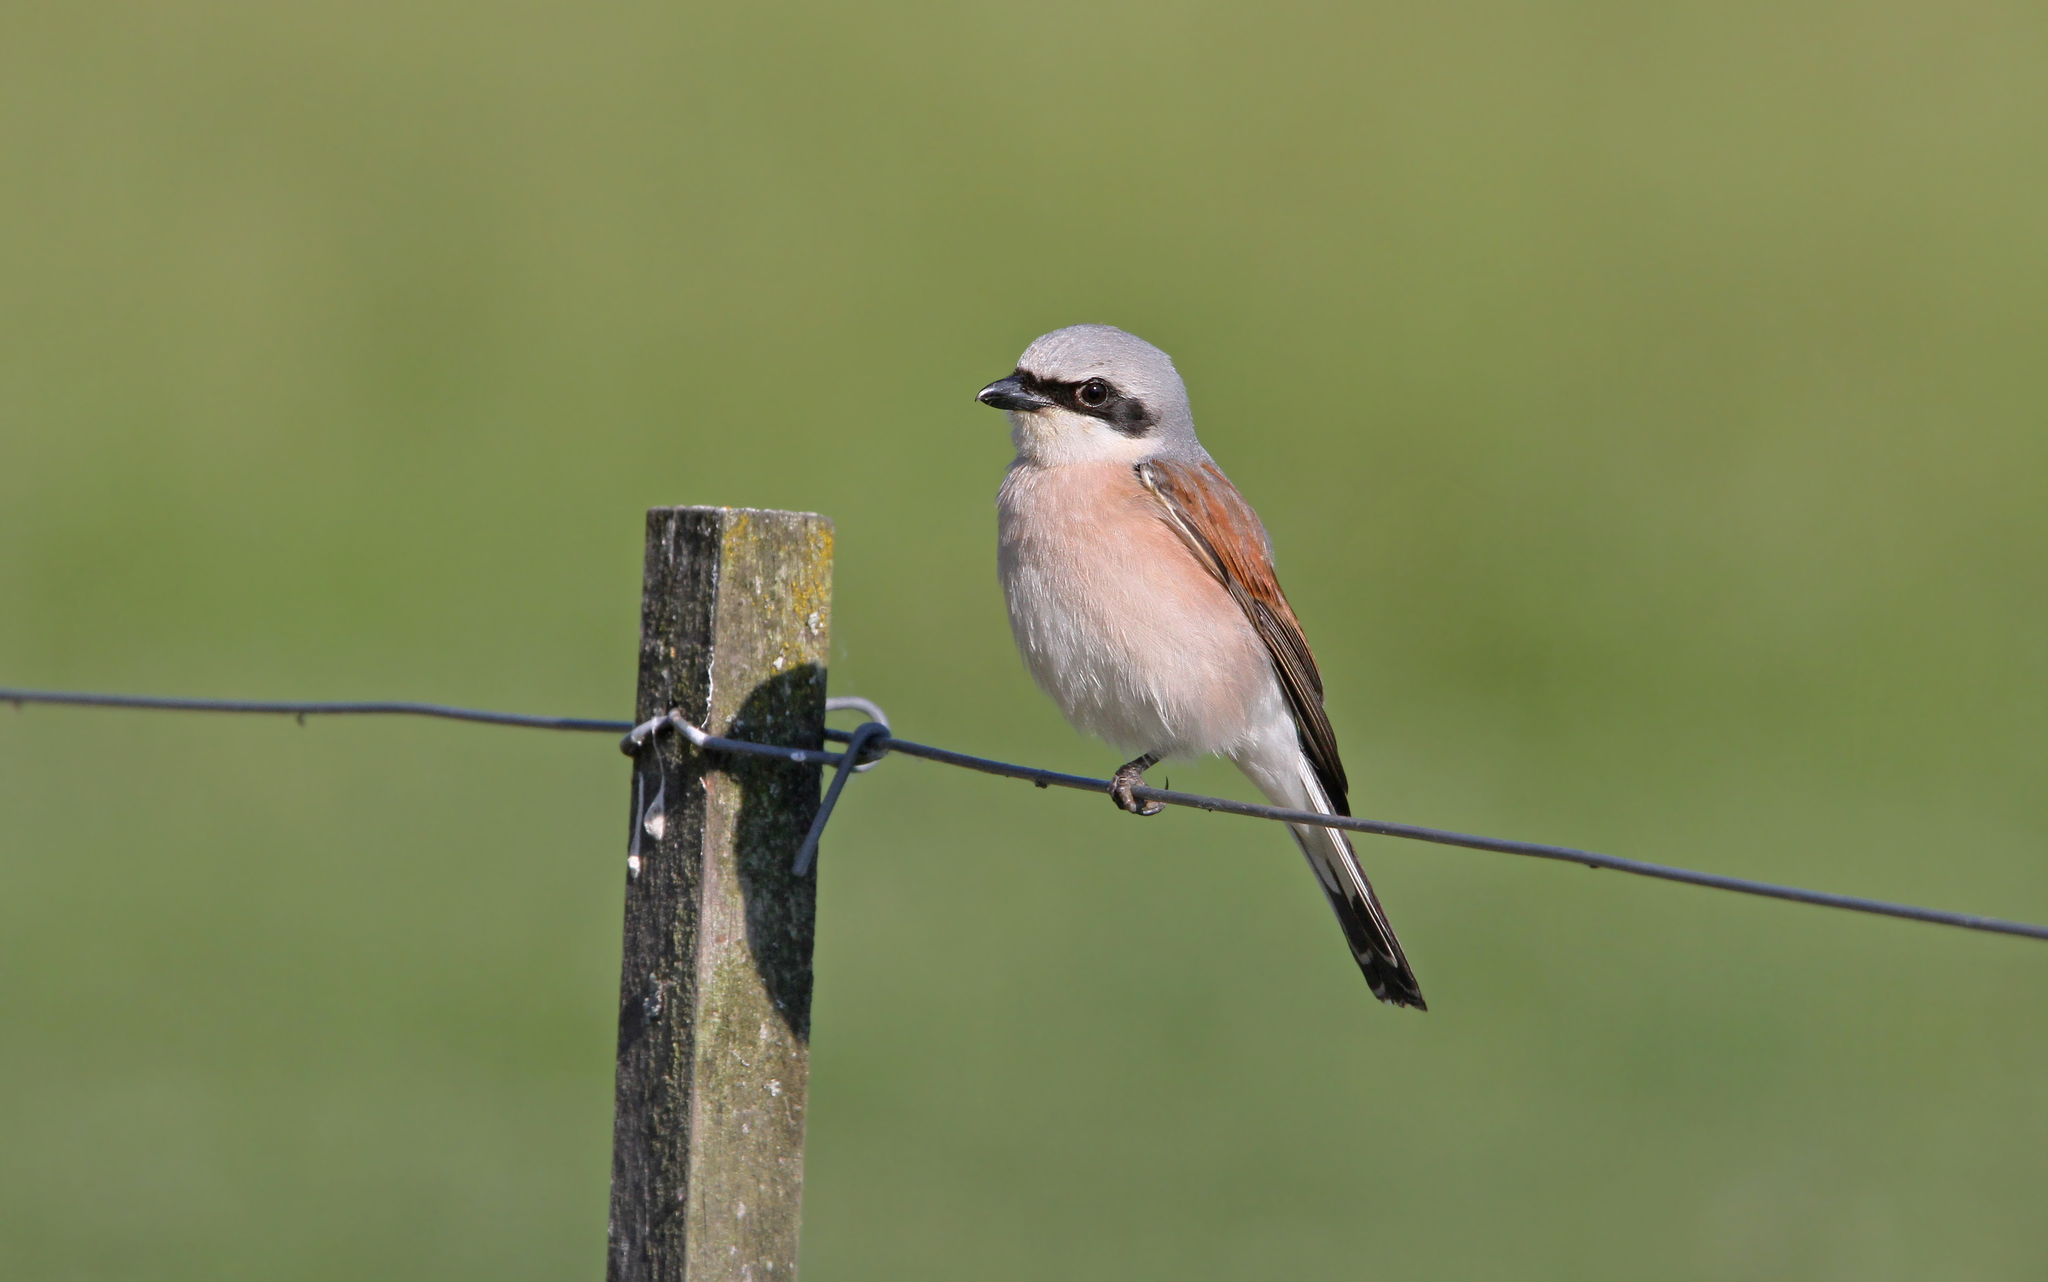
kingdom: Animalia
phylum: Chordata
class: Aves
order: Passeriformes
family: Laniidae
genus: Lanius
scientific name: Lanius collurio
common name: Red-backed shrike
